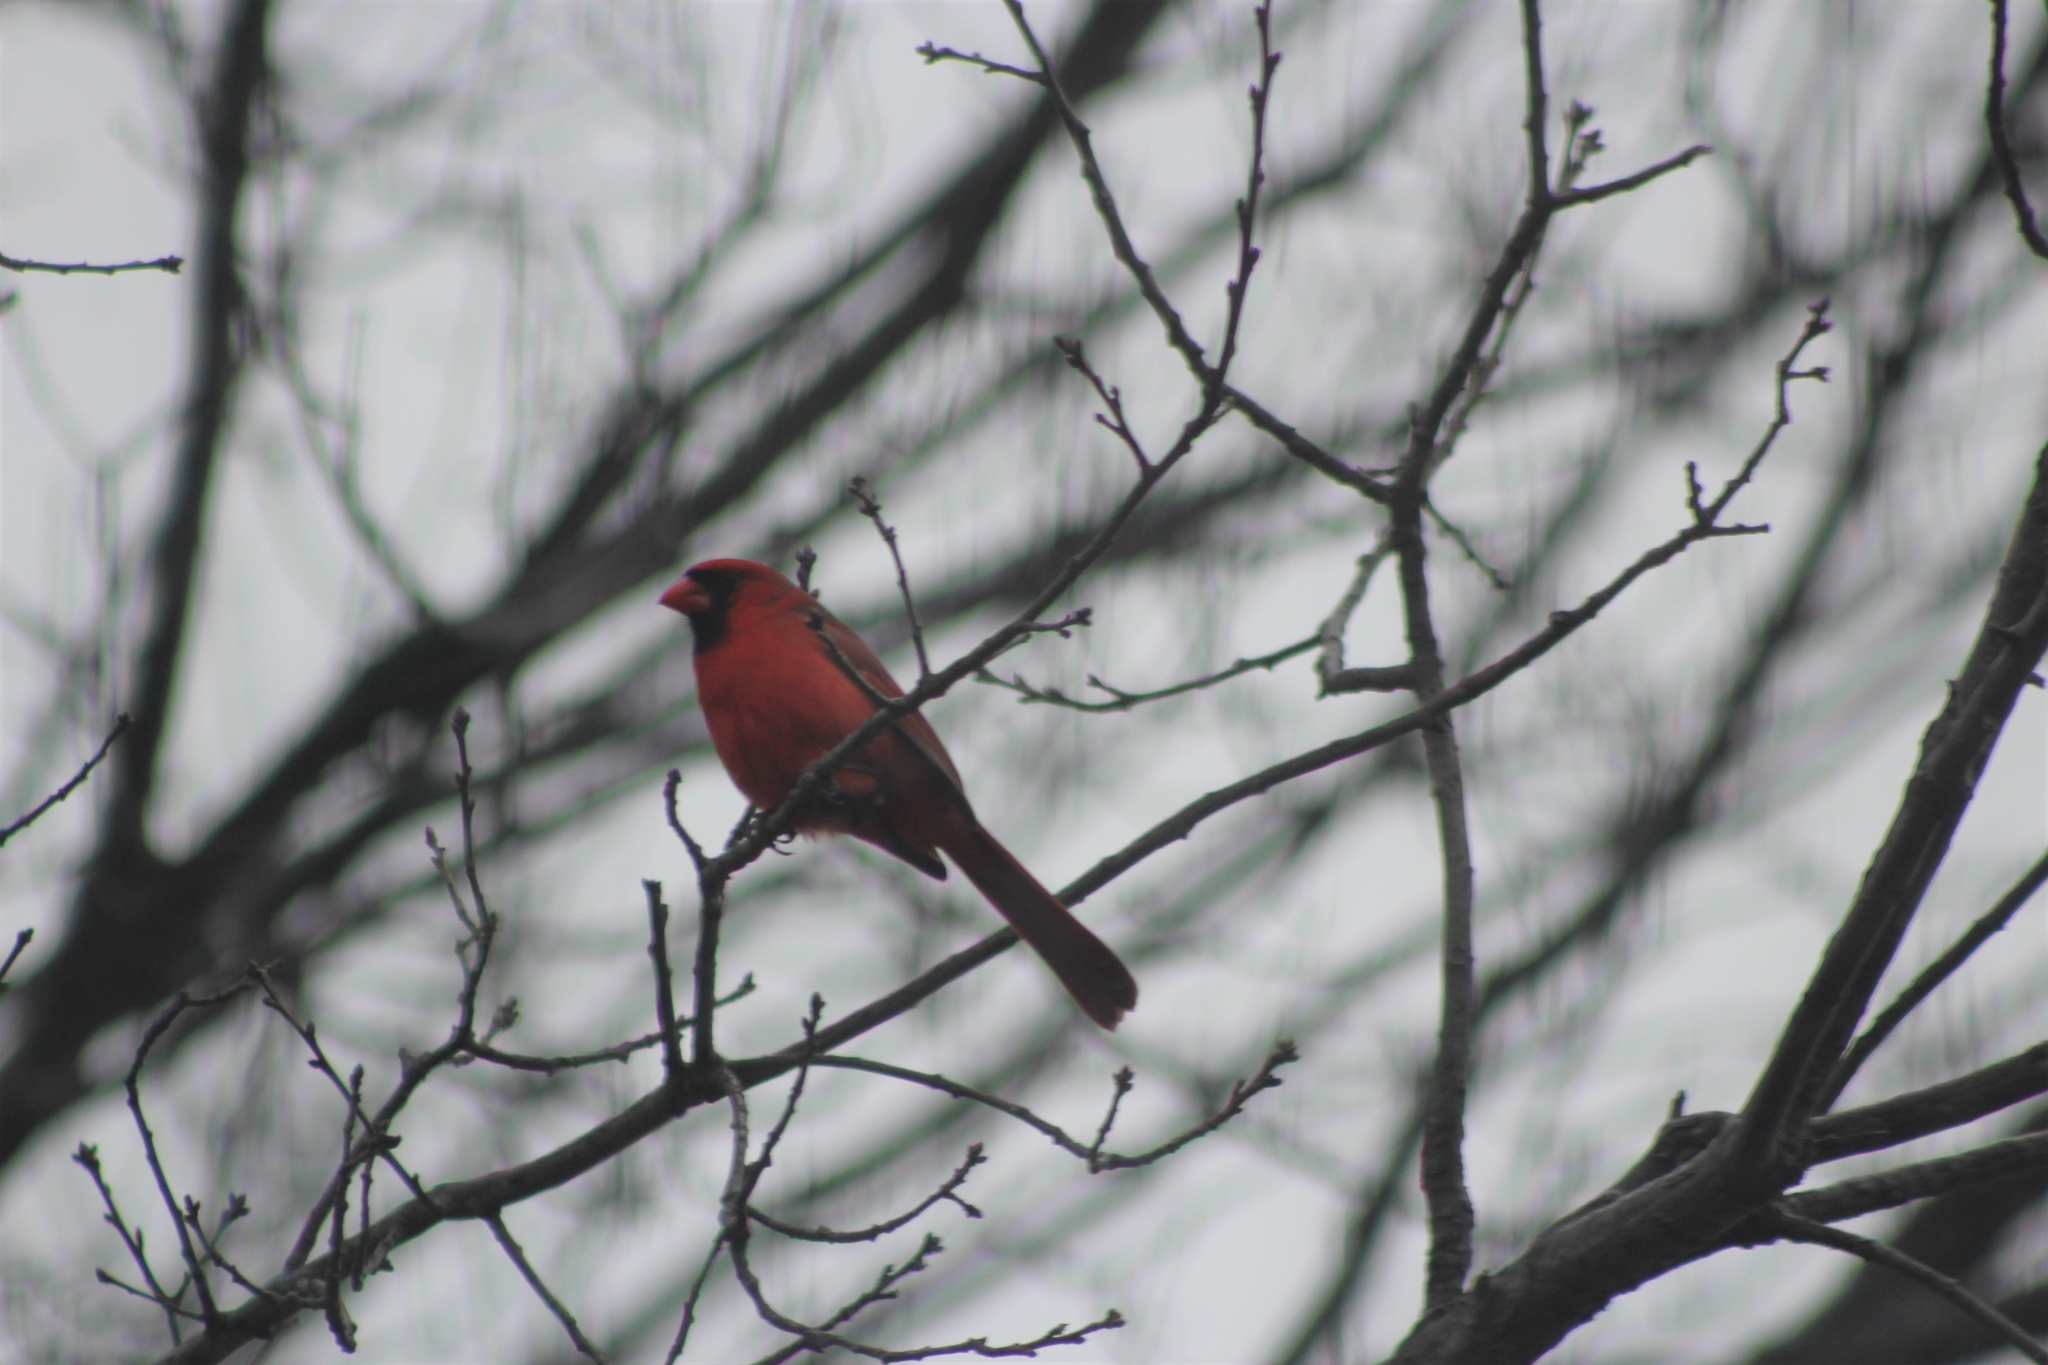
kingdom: Animalia
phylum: Chordata
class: Aves
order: Passeriformes
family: Cardinalidae
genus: Cardinalis
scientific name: Cardinalis cardinalis
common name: Northern cardinal
